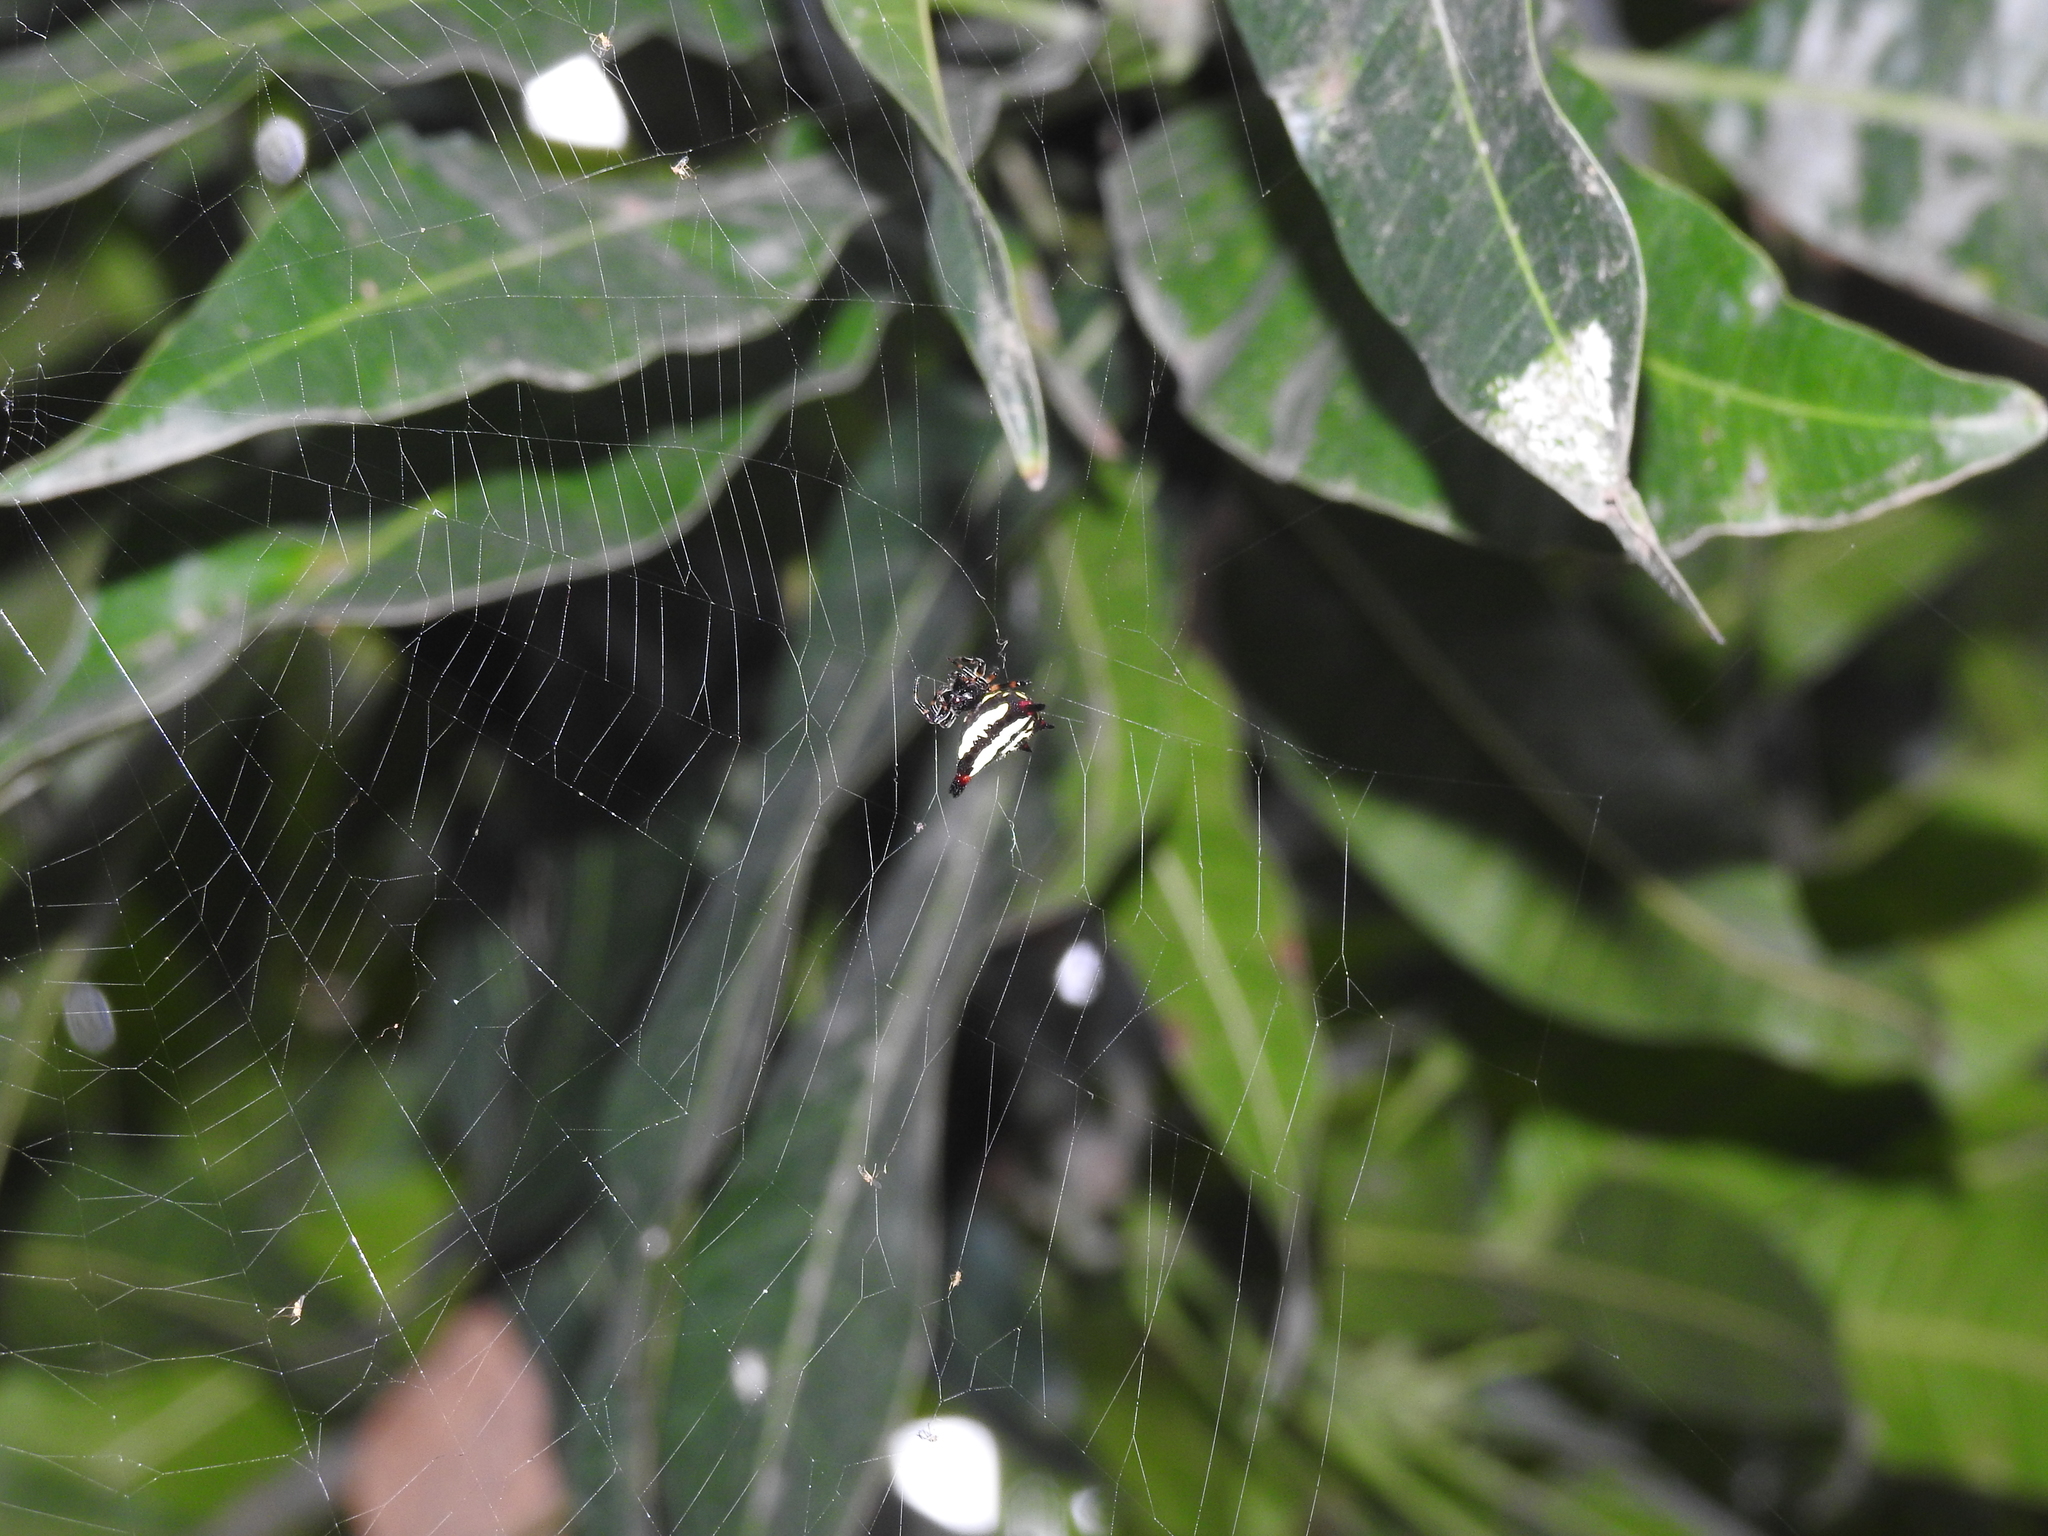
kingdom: Animalia
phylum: Arthropoda
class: Arachnida
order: Araneae
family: Araneidae
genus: Gasteracantha
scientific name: Gasteracantha geminata
